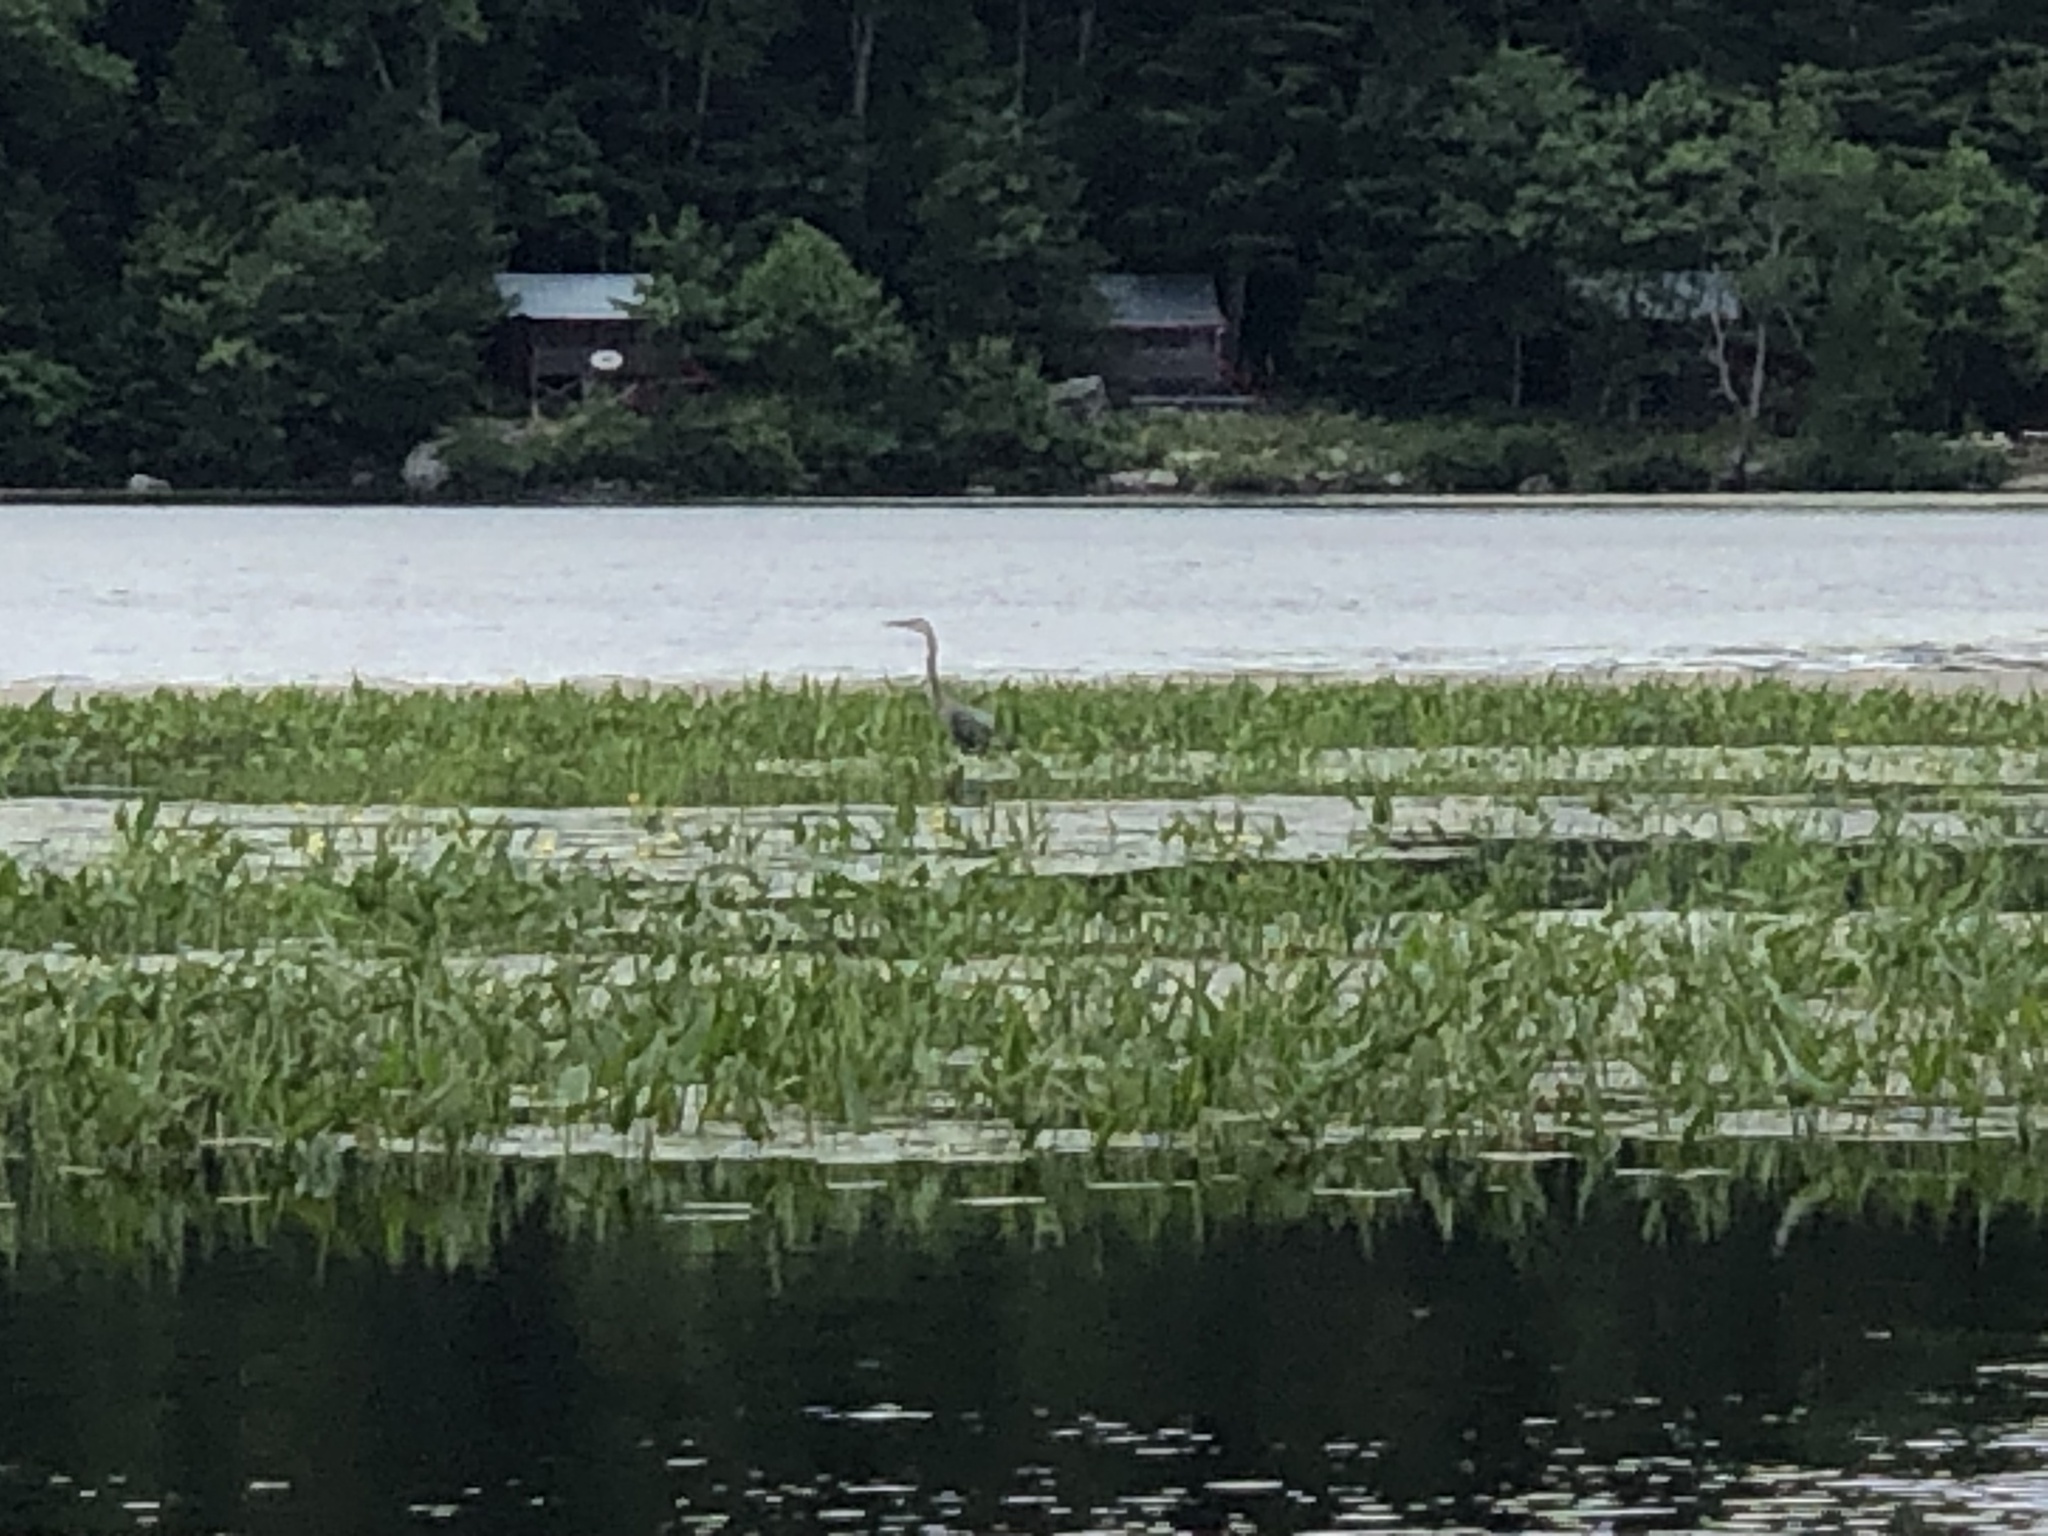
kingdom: Animalia
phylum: Chordata
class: Aves
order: Pelecaniformes
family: Ardeidae
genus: Ardea
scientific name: Ardea herodias
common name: Great blue heron
